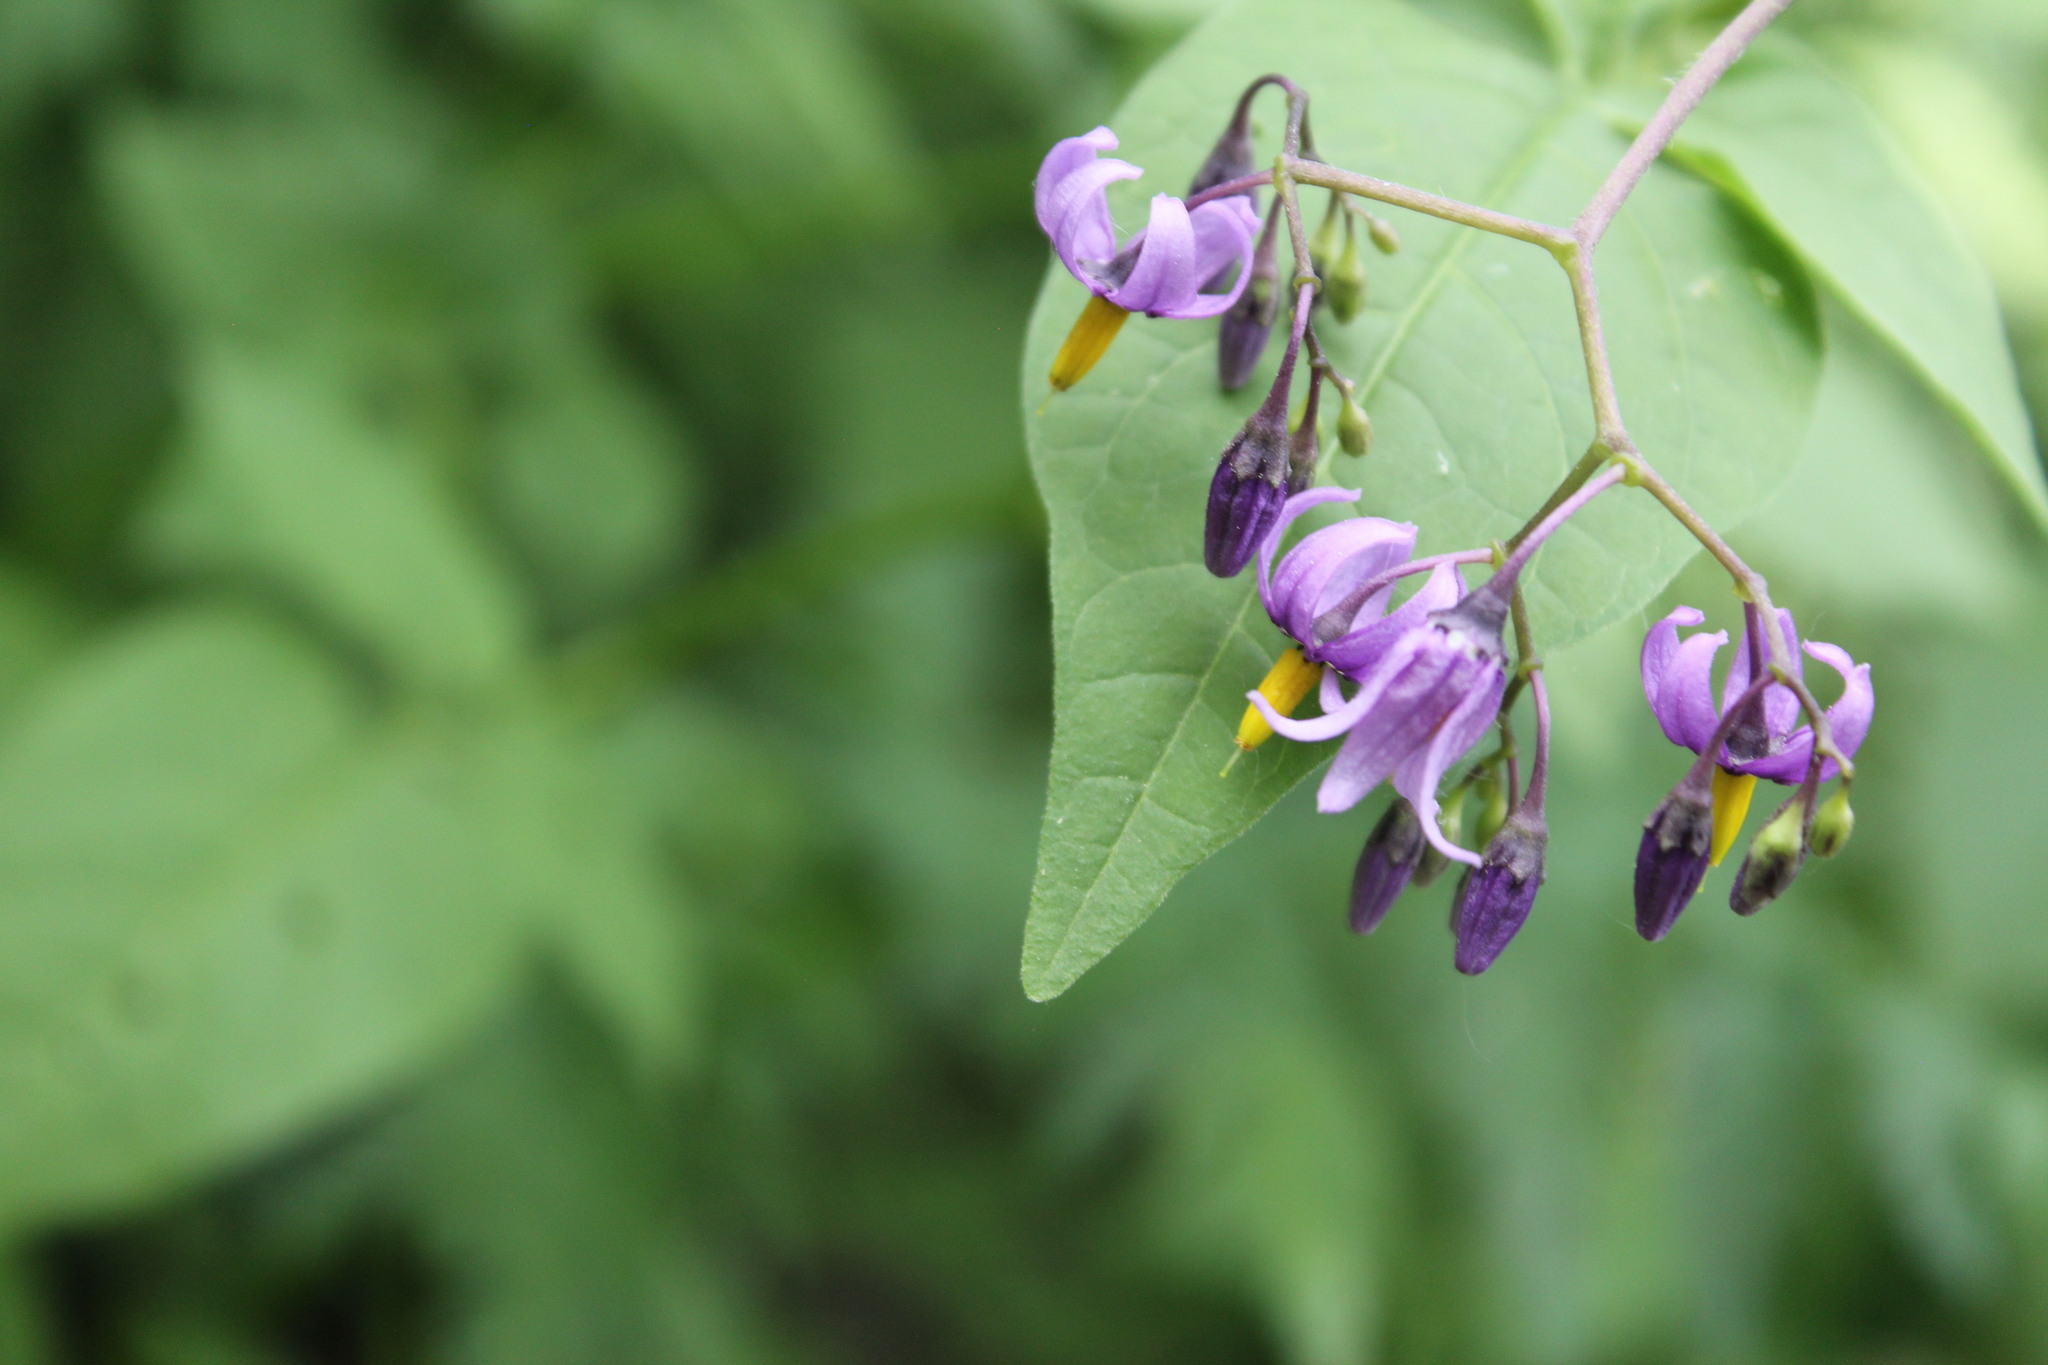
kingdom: Plantae
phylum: Tracheophyta
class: Magnoliopsida
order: Solanales
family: Solanaceae
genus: Solanum
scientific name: Solanum dulcamara
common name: Climbing nightshade
